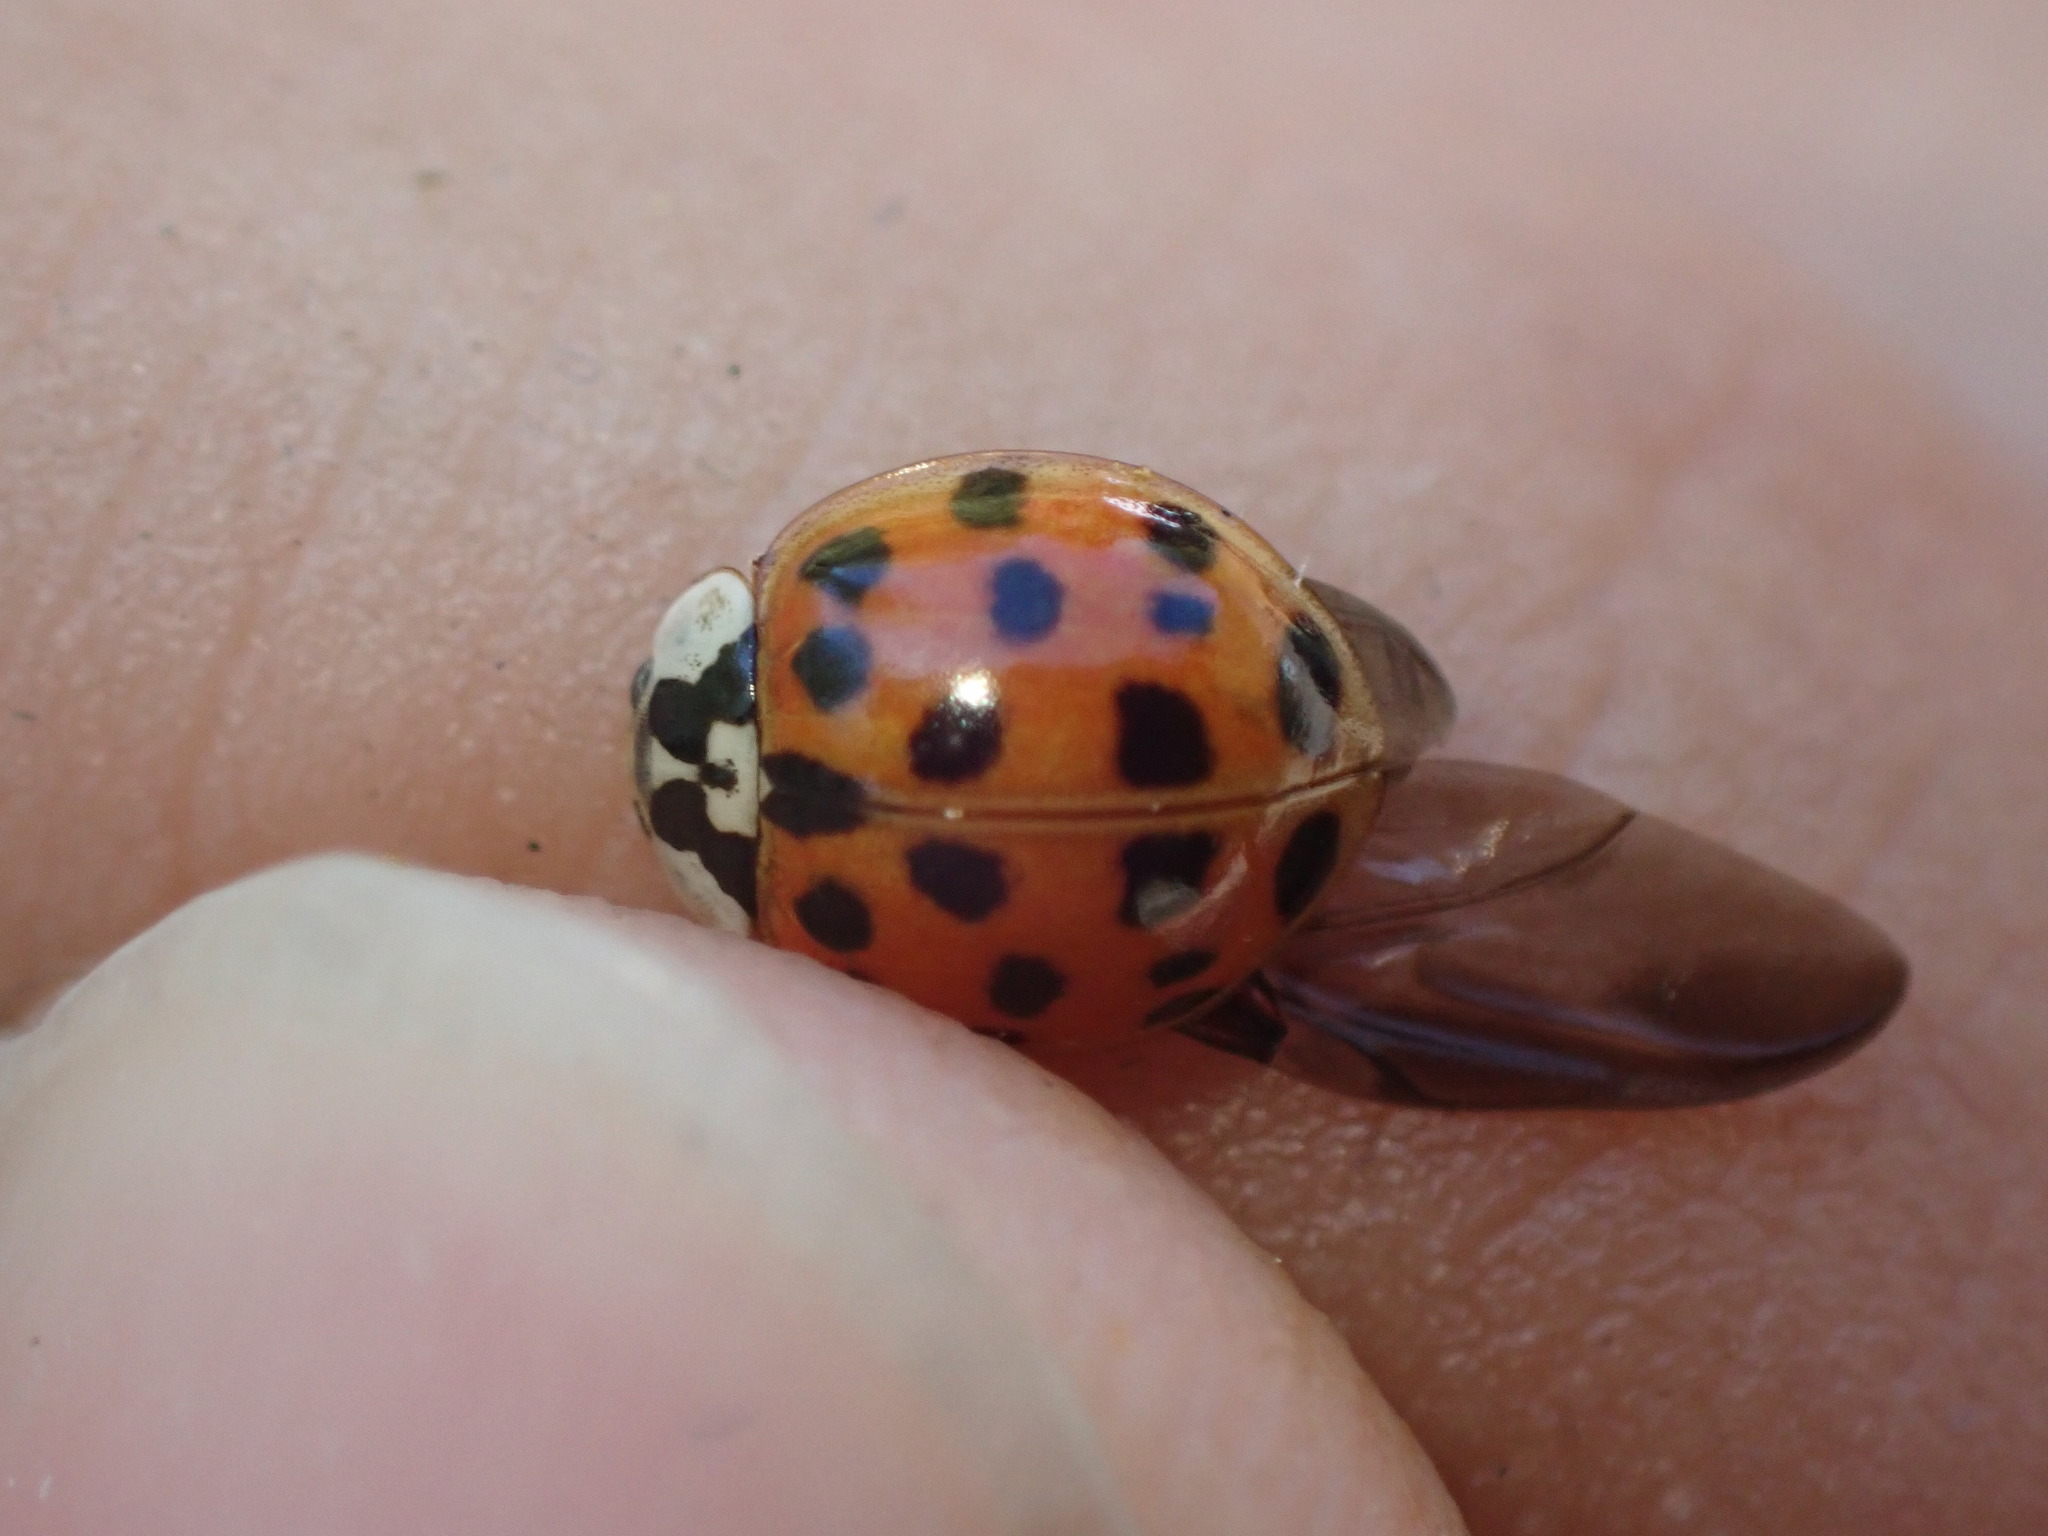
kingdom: Animalia
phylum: Arthropoda
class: Insecta
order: Coleoptera
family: Coccinellidae
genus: Harmonia
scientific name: Harmonia axyridis
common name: Harlequin ladybird
